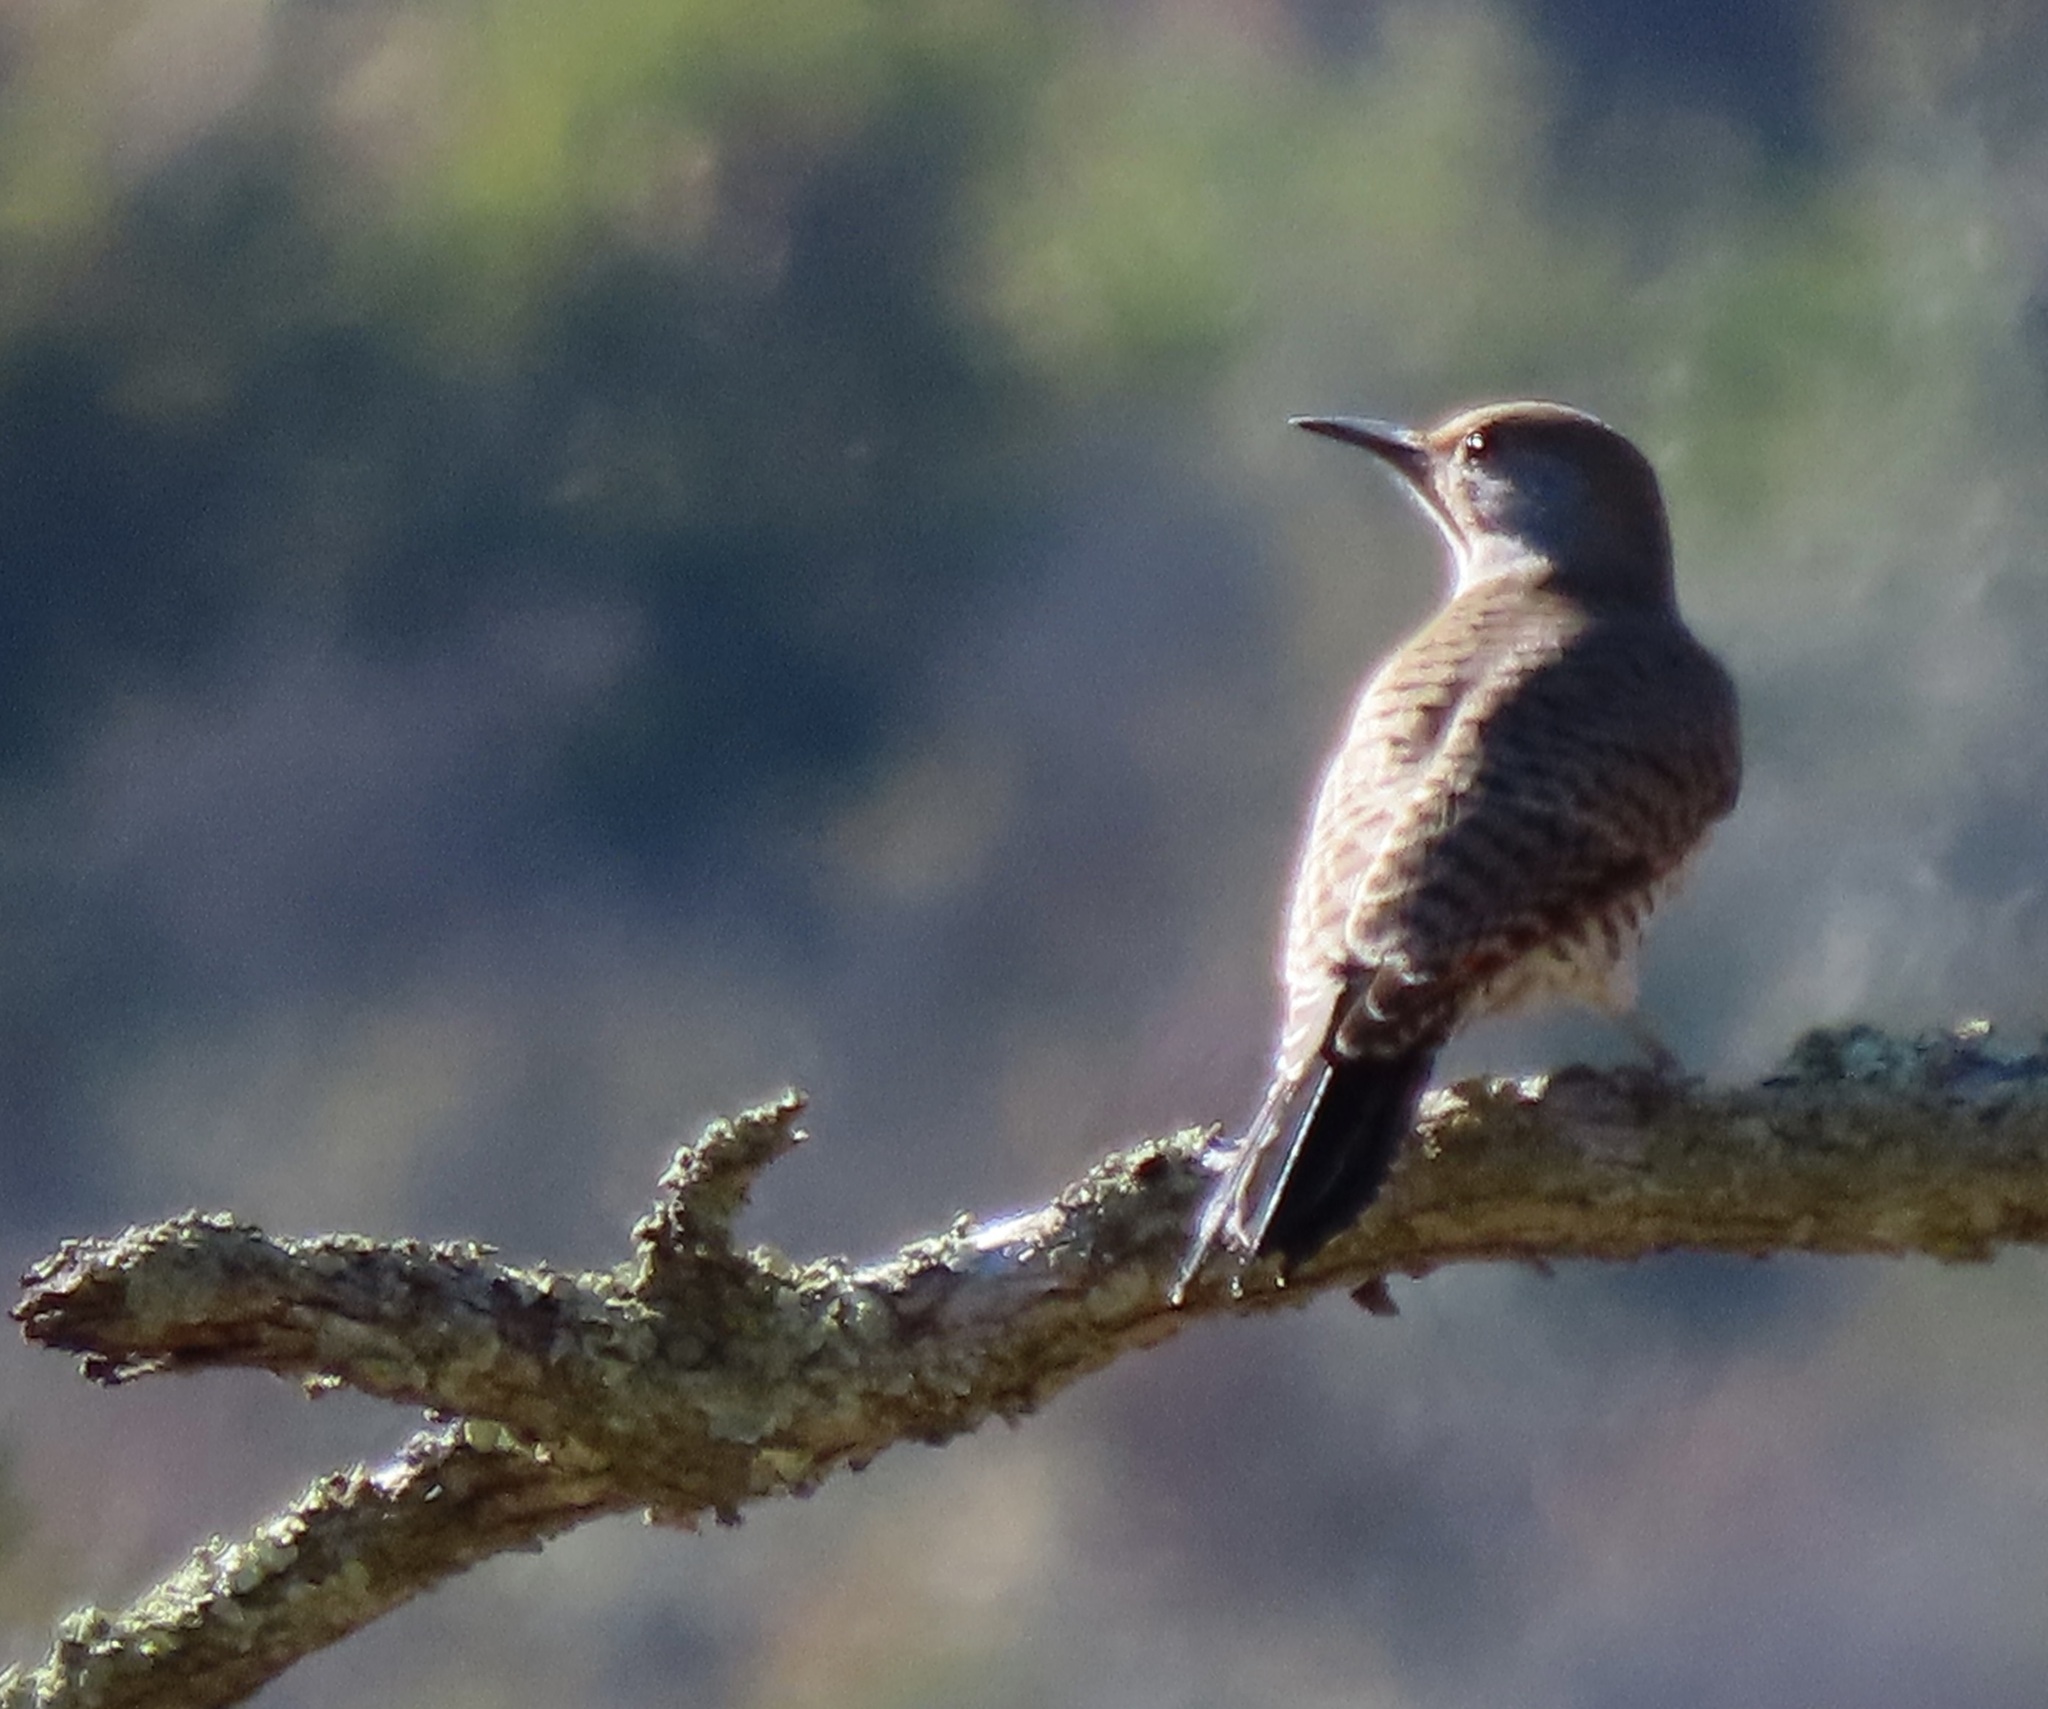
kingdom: Animalia
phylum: Chordata
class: Aves
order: Piciformes
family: Picidae
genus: Colaptes
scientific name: Colaptes auratus
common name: Northern flicker
